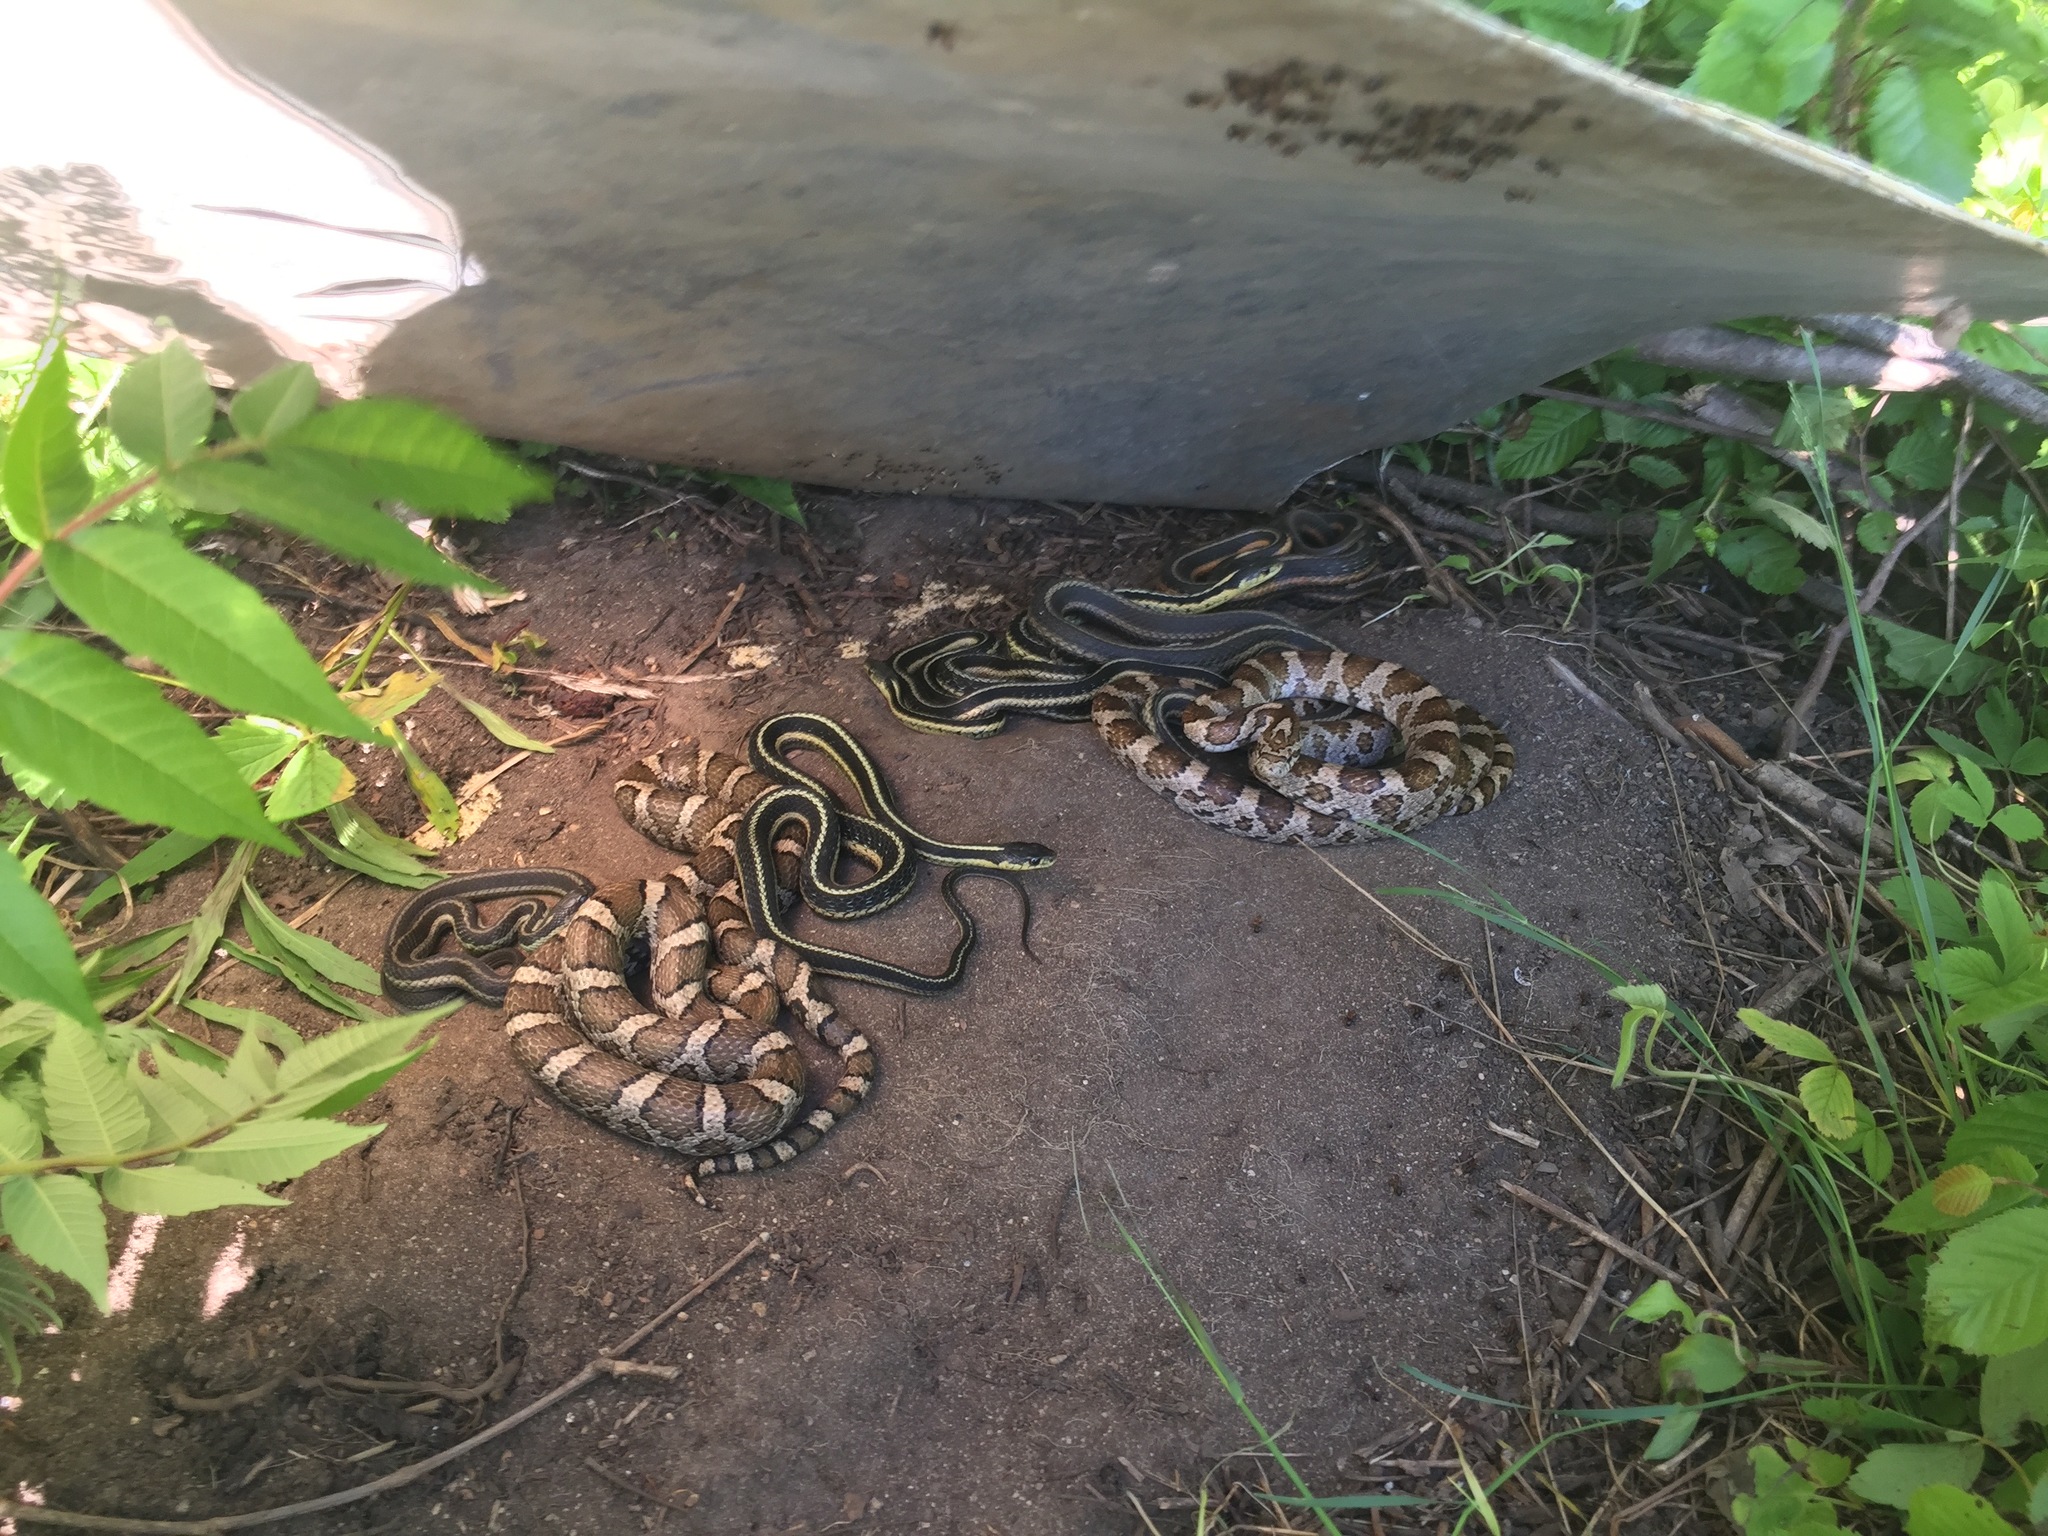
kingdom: Animalia
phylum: Chordata
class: Squamata
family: Colubridae
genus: Lampropeltis
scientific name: Lampropeltis triangulum
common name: Eastern milksnake
